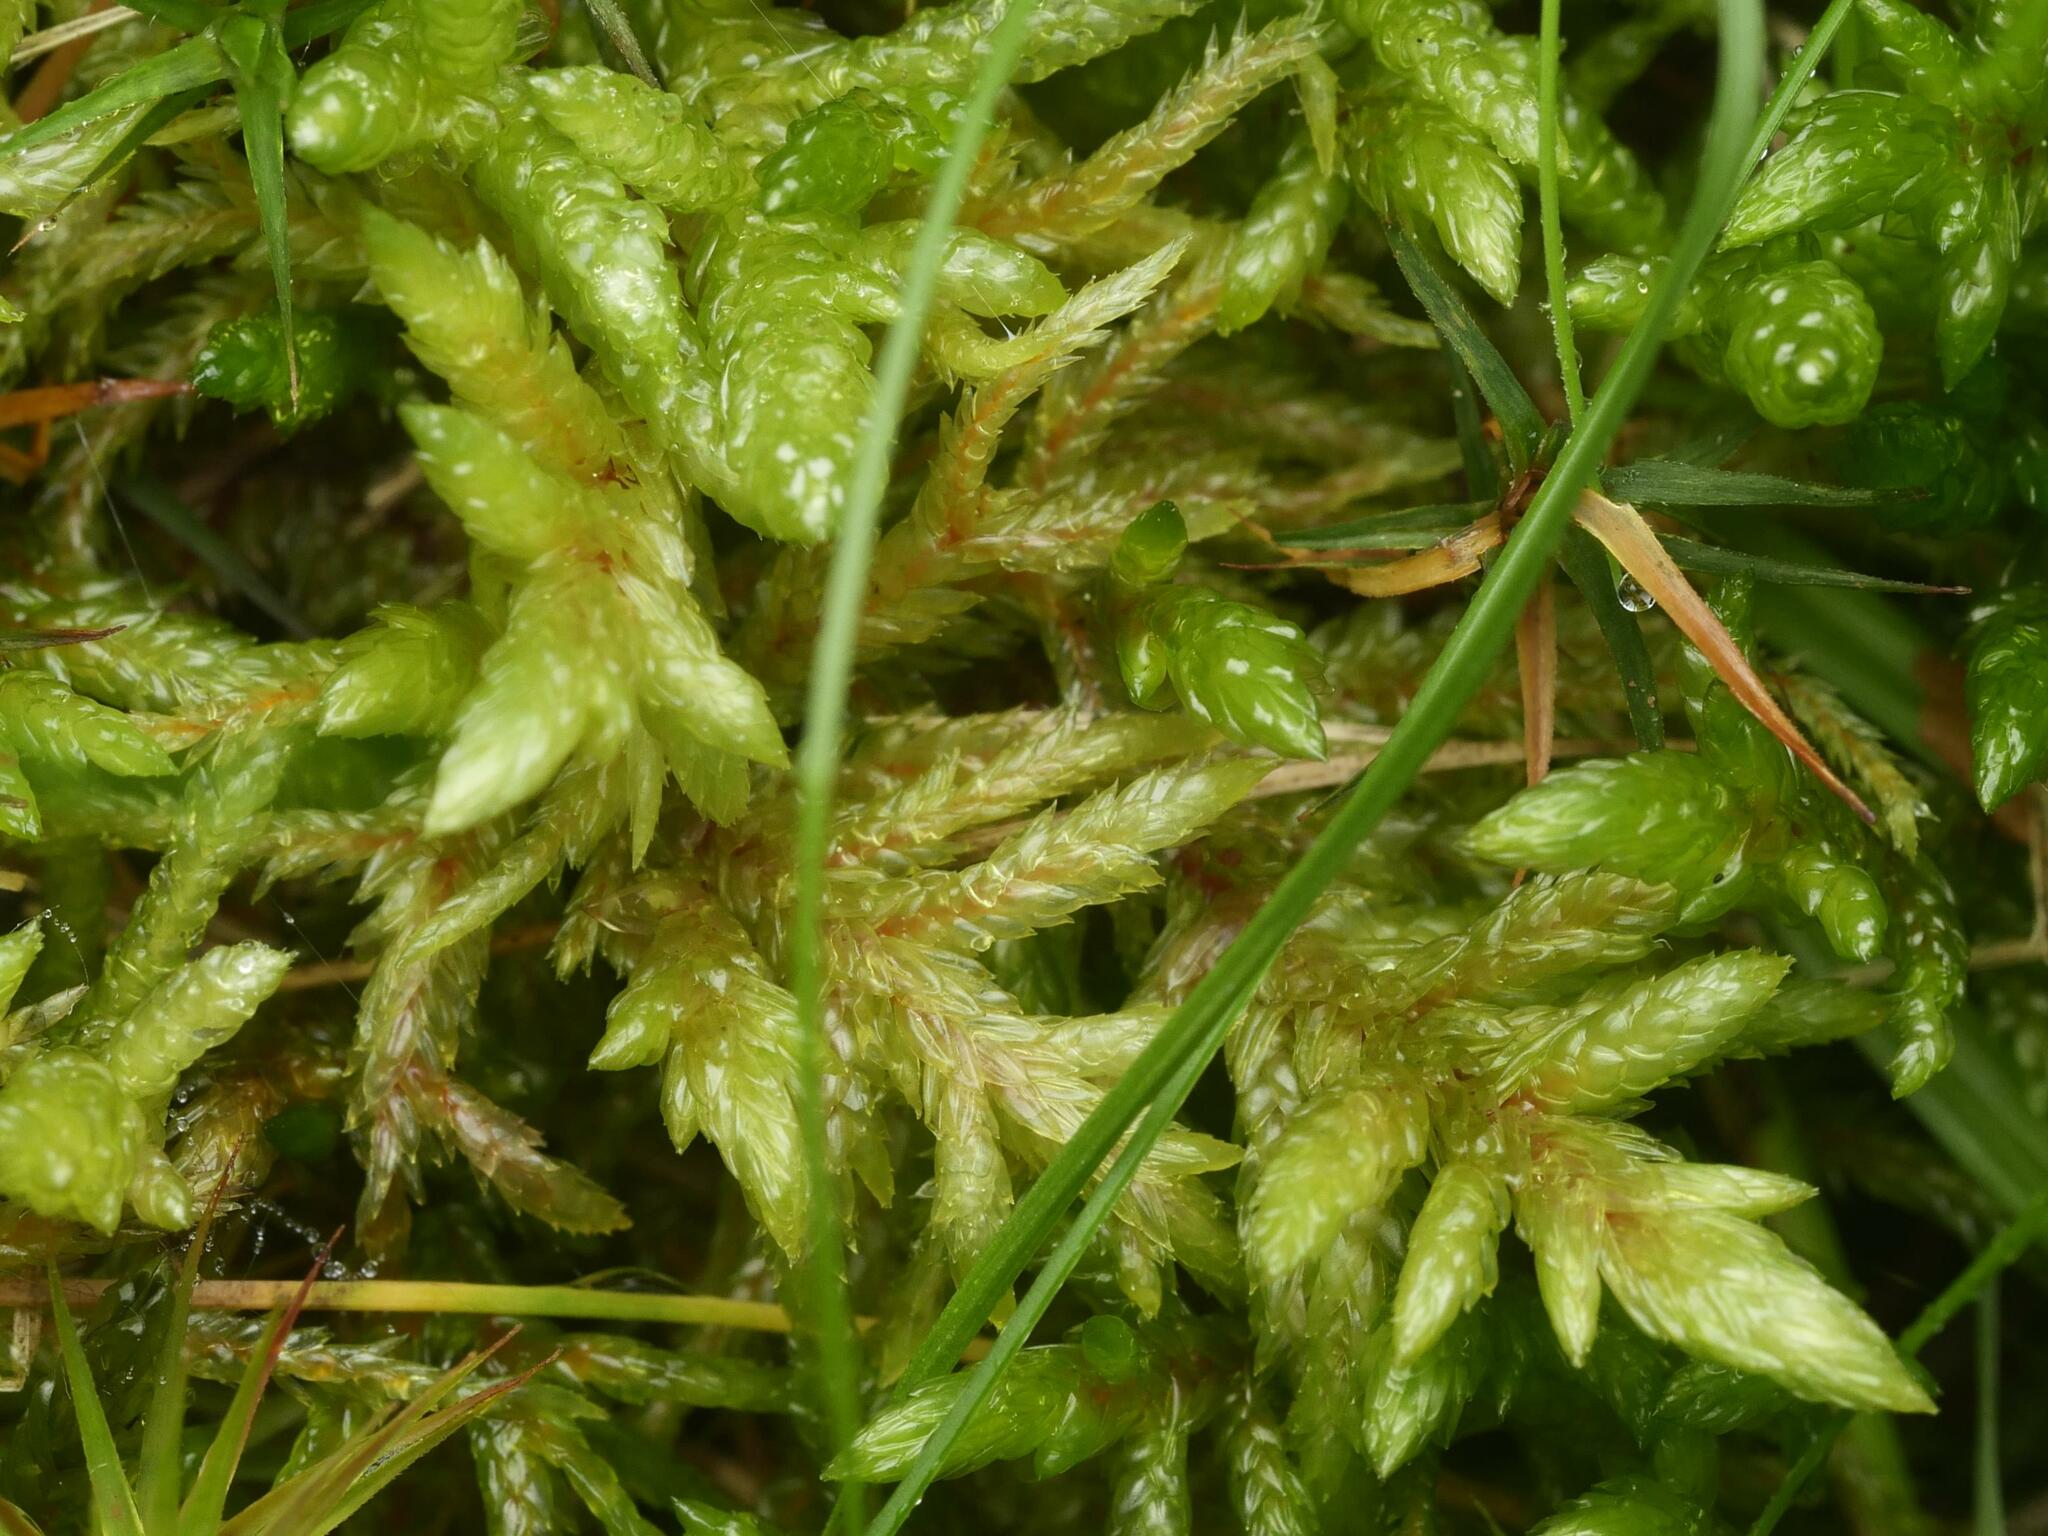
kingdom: Plantae
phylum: Bryophyta
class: Bryopsida
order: Hypnales
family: Hylocomiaceae
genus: Pleurozium
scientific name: Pleurozium schreberi
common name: Red-stemmed feather moss
